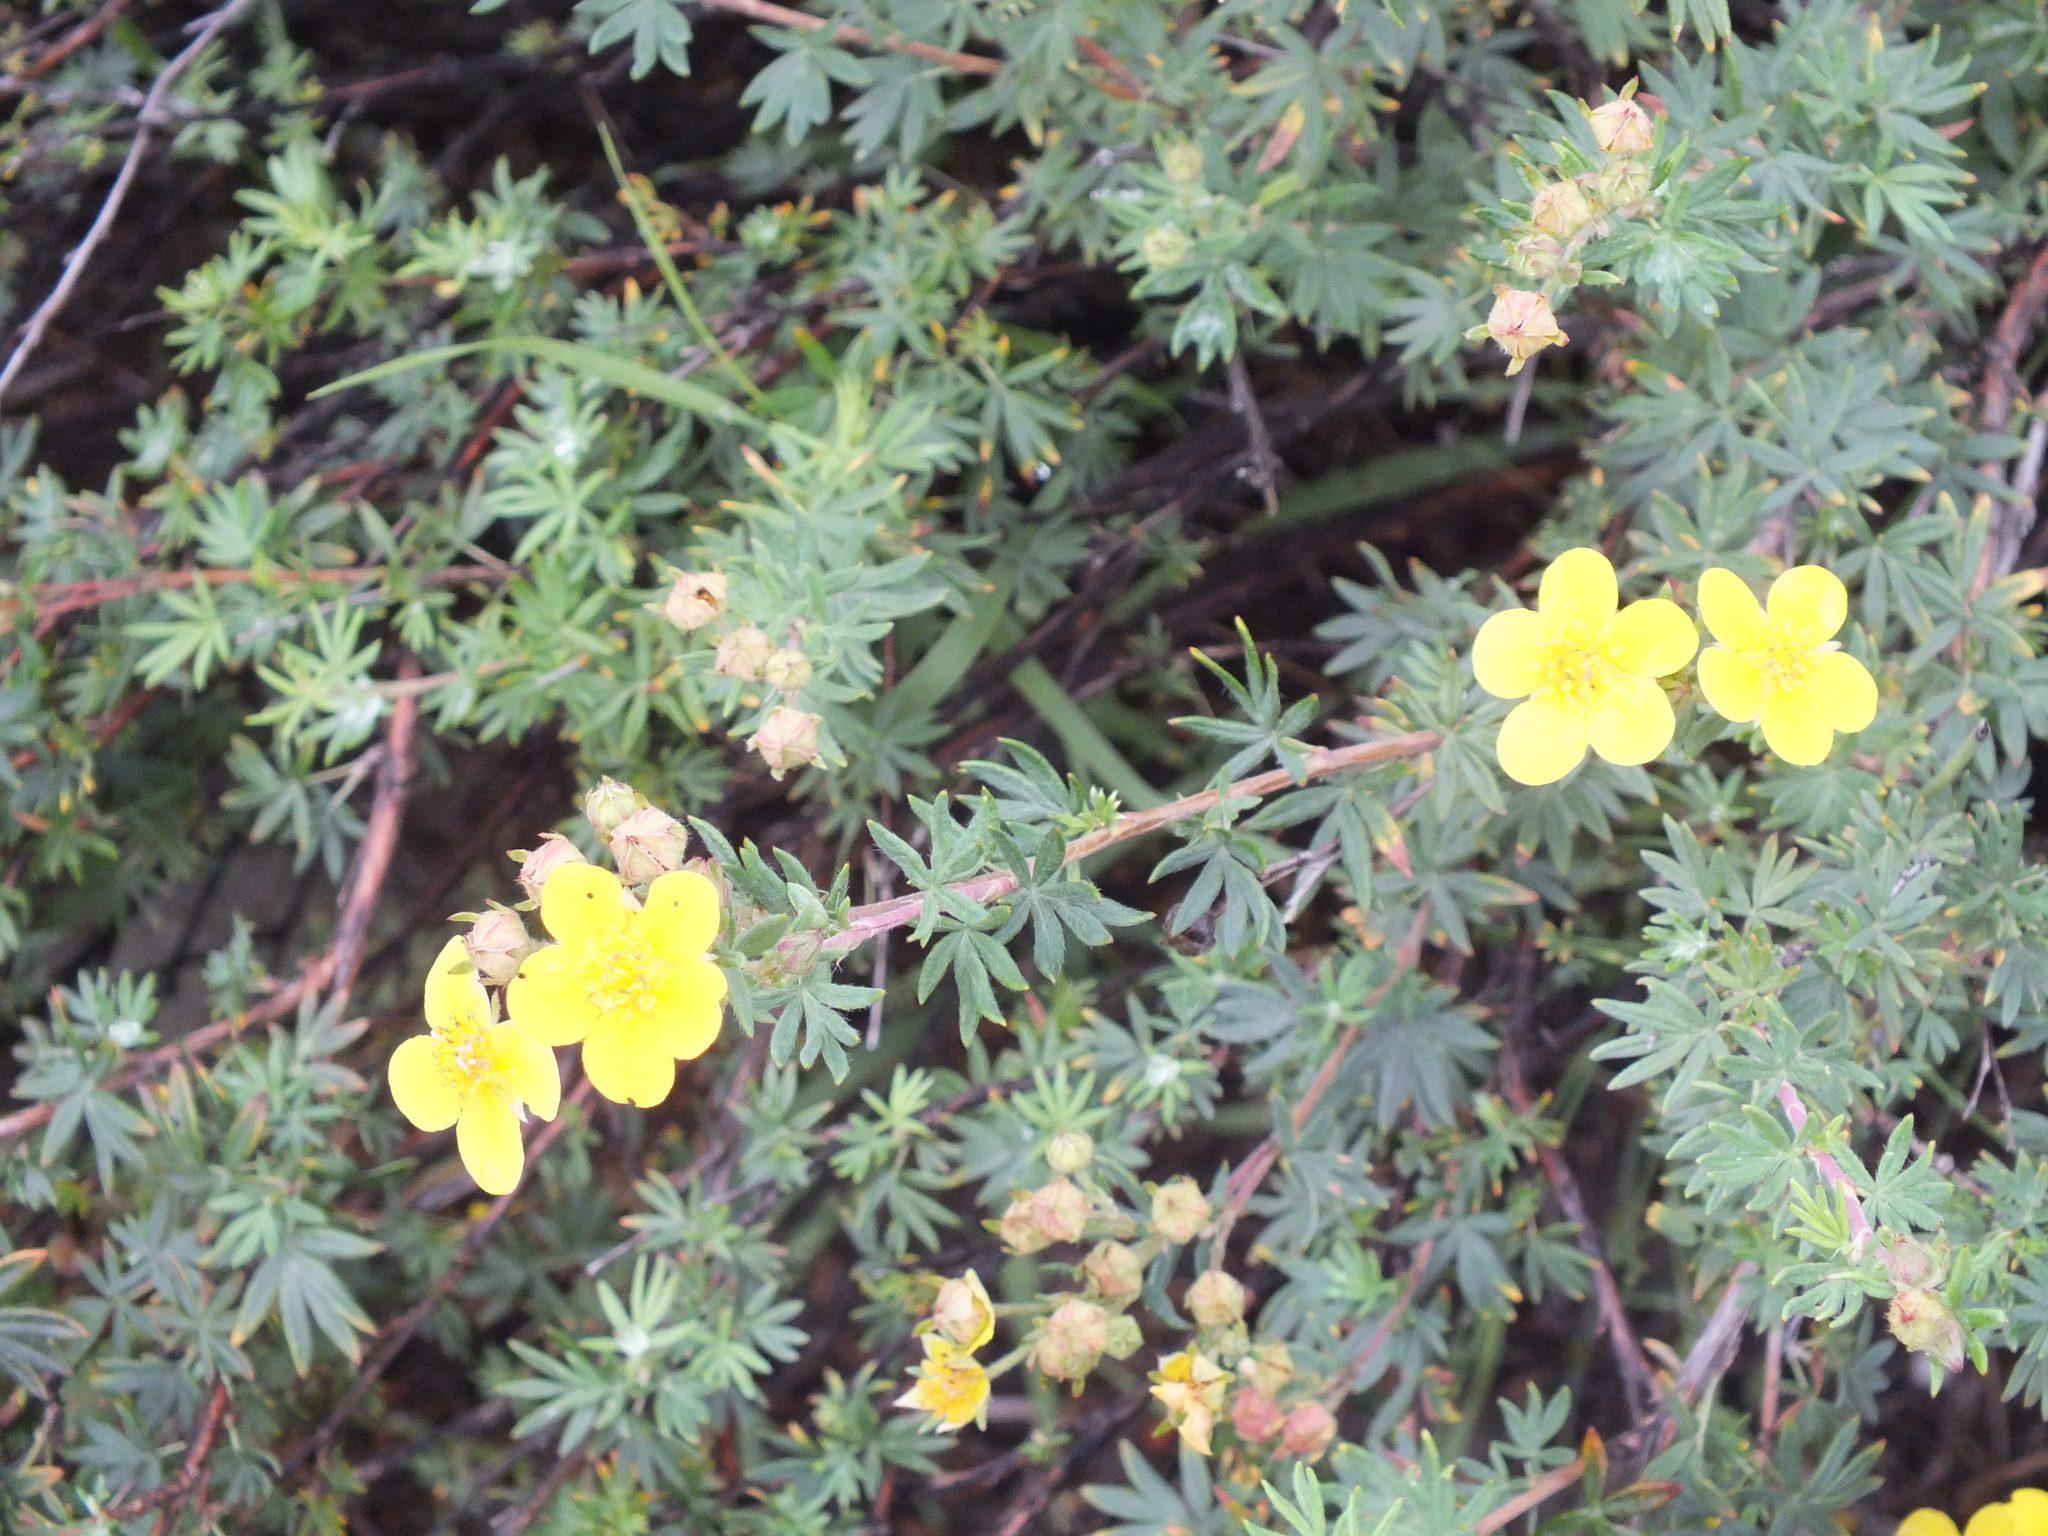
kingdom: Plantae
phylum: Tracheophyta
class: Magnoliopsida
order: Rosales
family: Rosaceae
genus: Dasiphora
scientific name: Dasiphora fruticosa
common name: Shrubby cinquefoil
